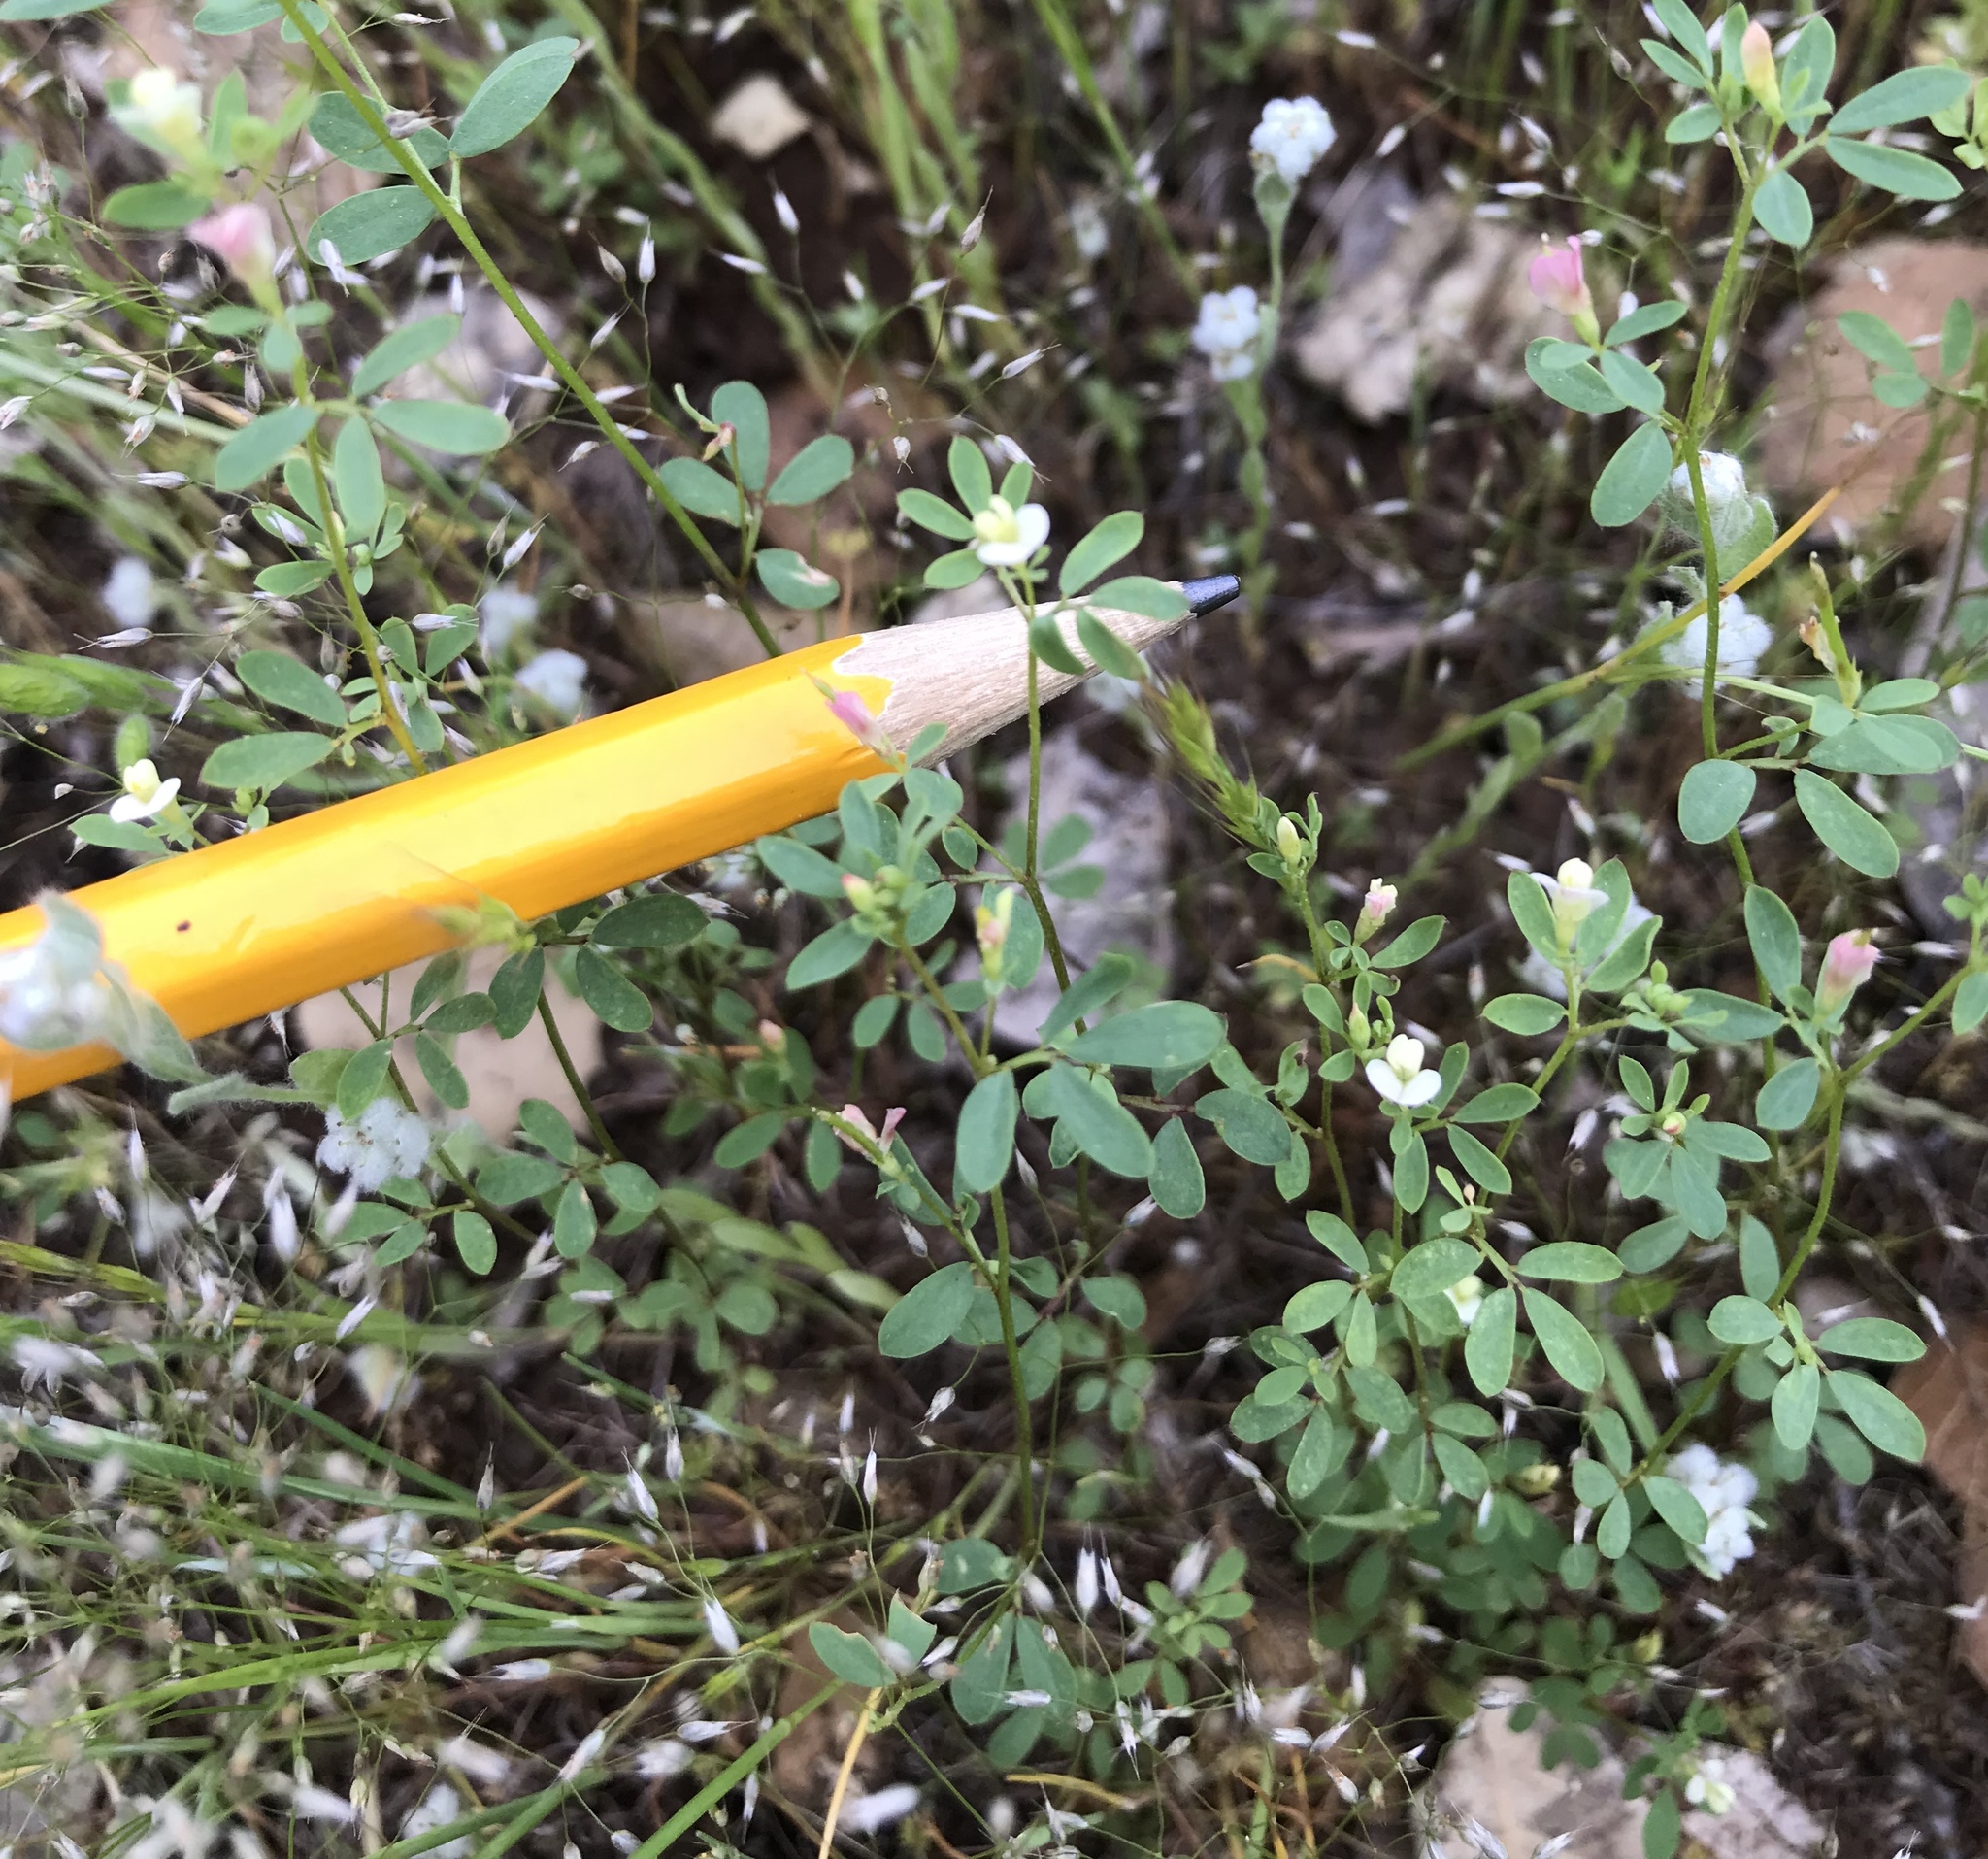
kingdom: Plantae
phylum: Tracheophyta
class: Magnoliopsida
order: Fabales
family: Fabaceae
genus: Acmispon
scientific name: Acmispon parviflorus
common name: Desert deer-vetch
